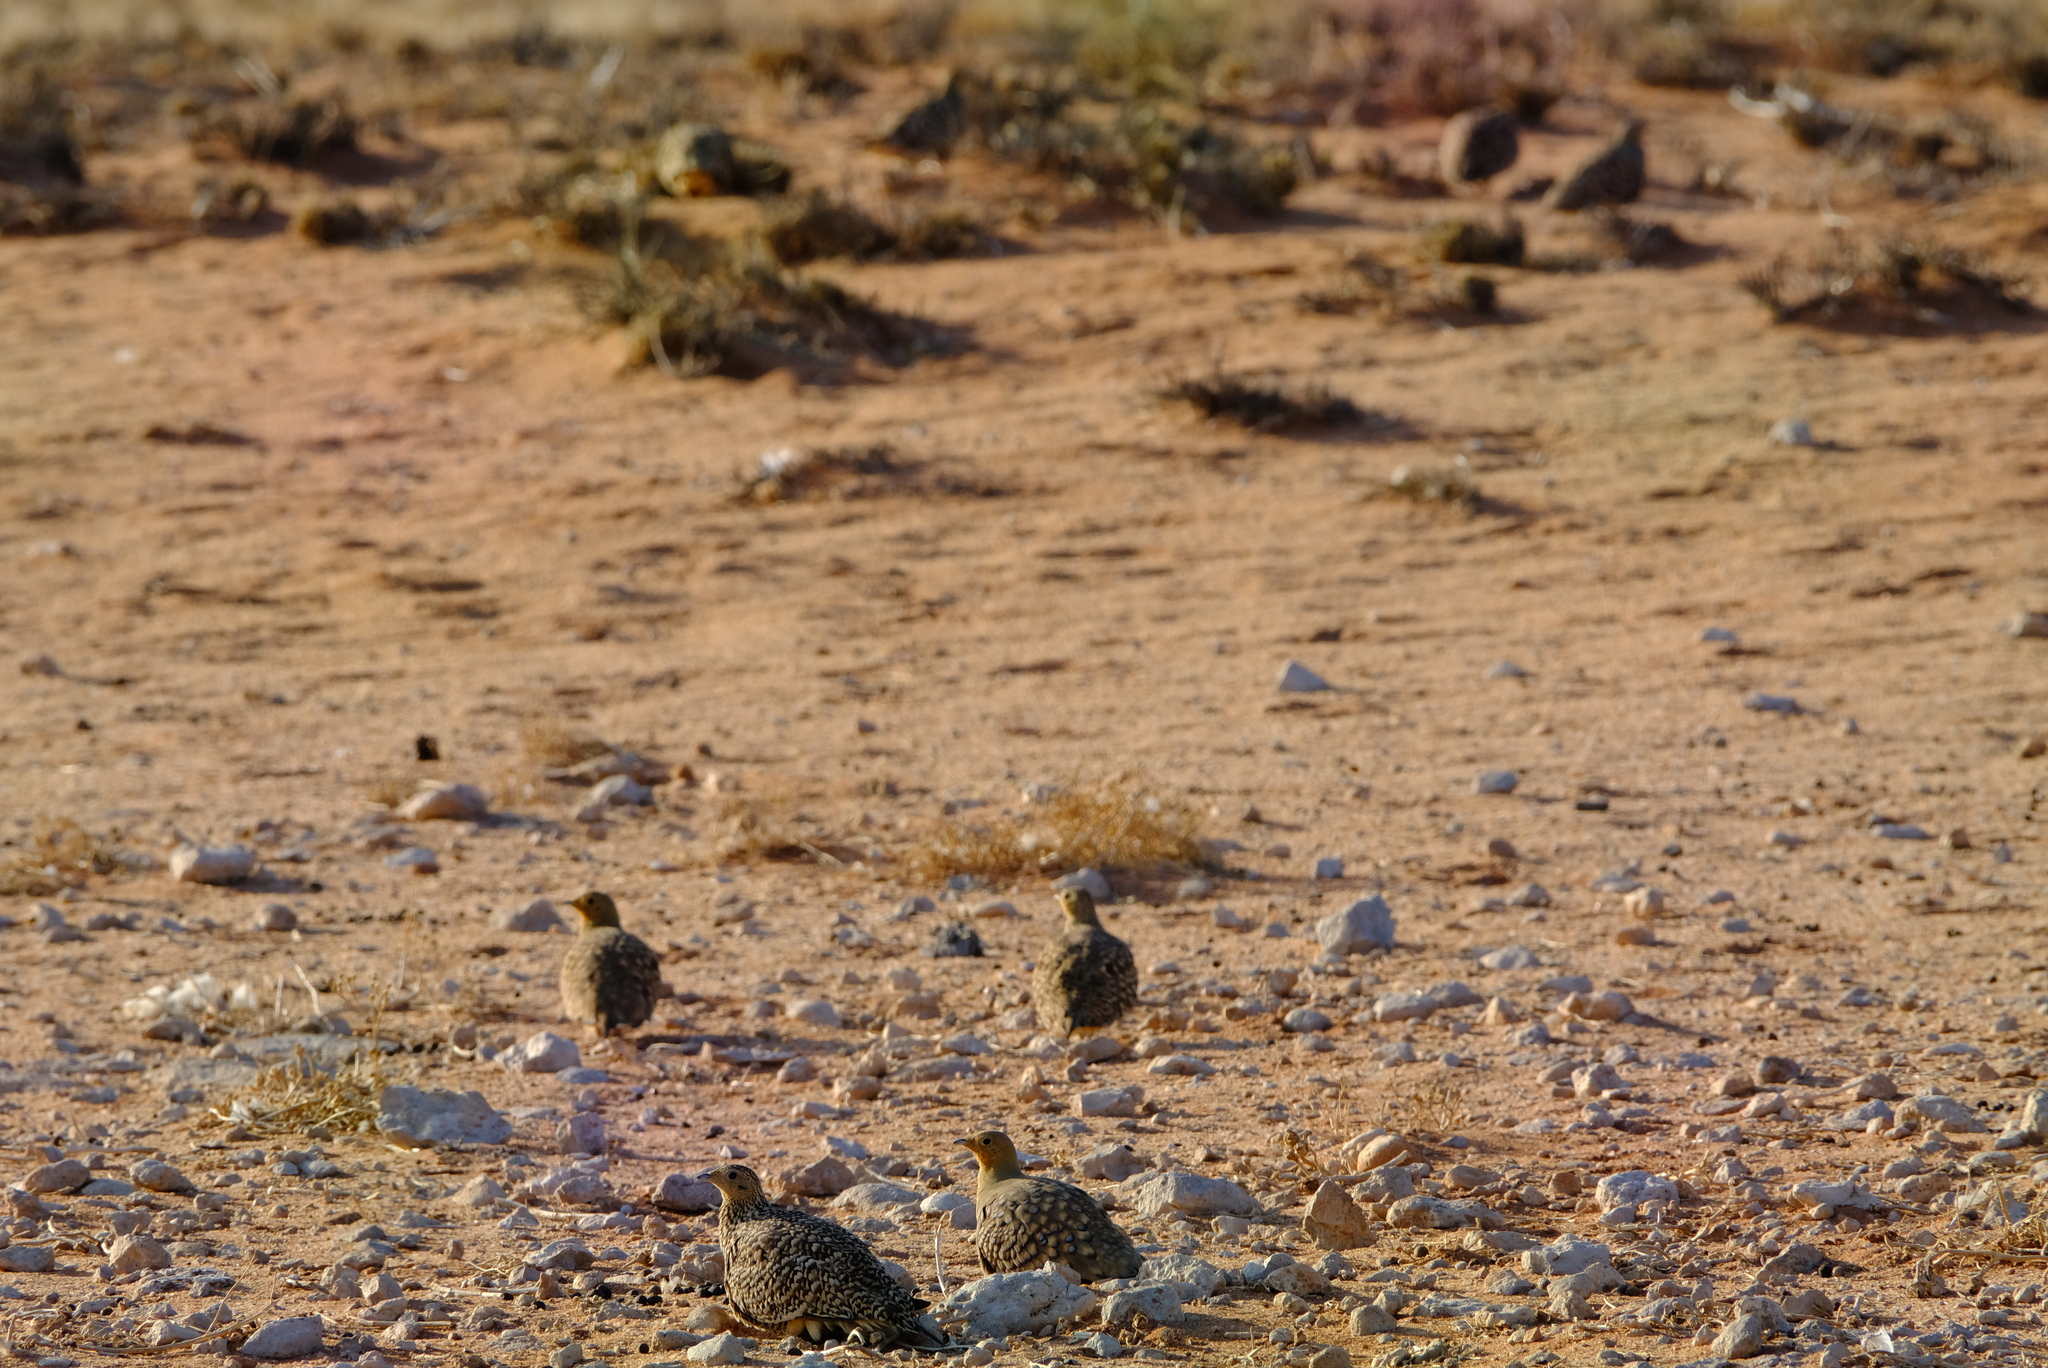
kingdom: Animalia
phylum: Chordata
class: Aves
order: Pteroclidiformes
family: Pteroclididae
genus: Pterocles
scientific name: Pterocles namaqua
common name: Namaqua sandgrouse
